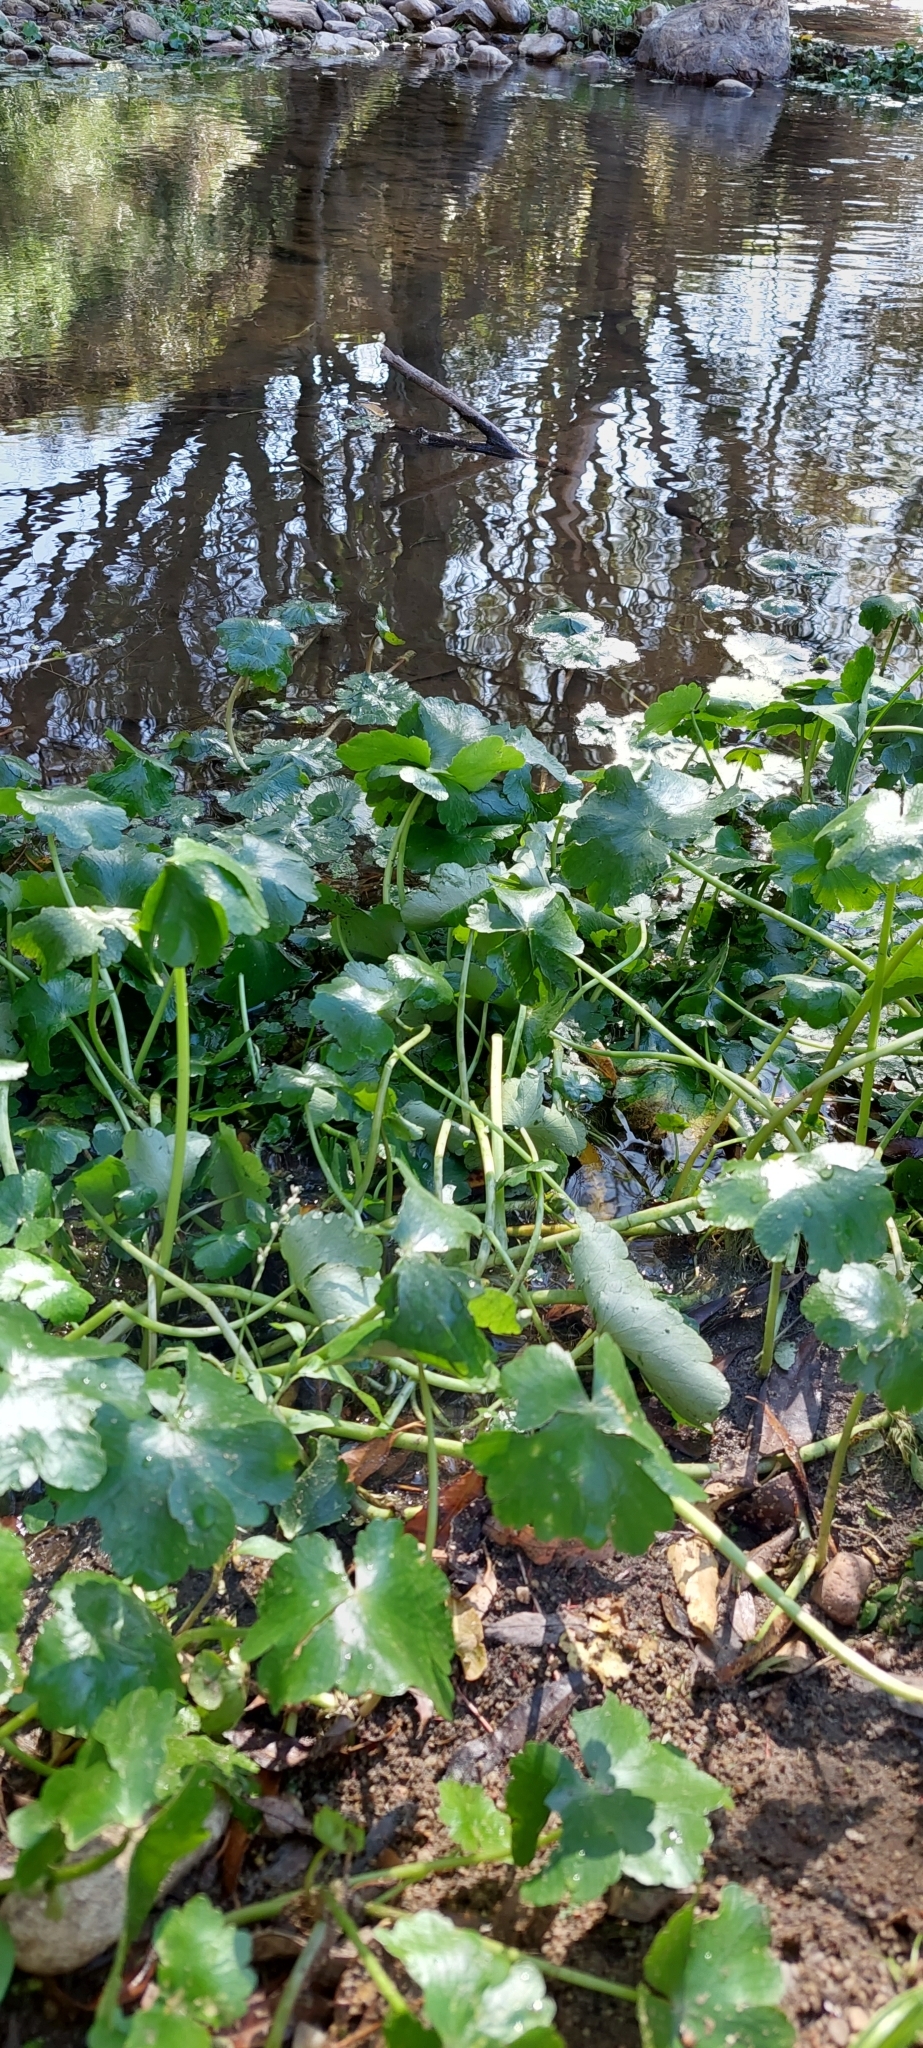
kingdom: Plantae
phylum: Tracheophyta
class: Magnoliopsida
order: Apiales
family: Araliaceae
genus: Hydrocotyle
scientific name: Hydrocotyle ranunculoides
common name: Floating pennywort
